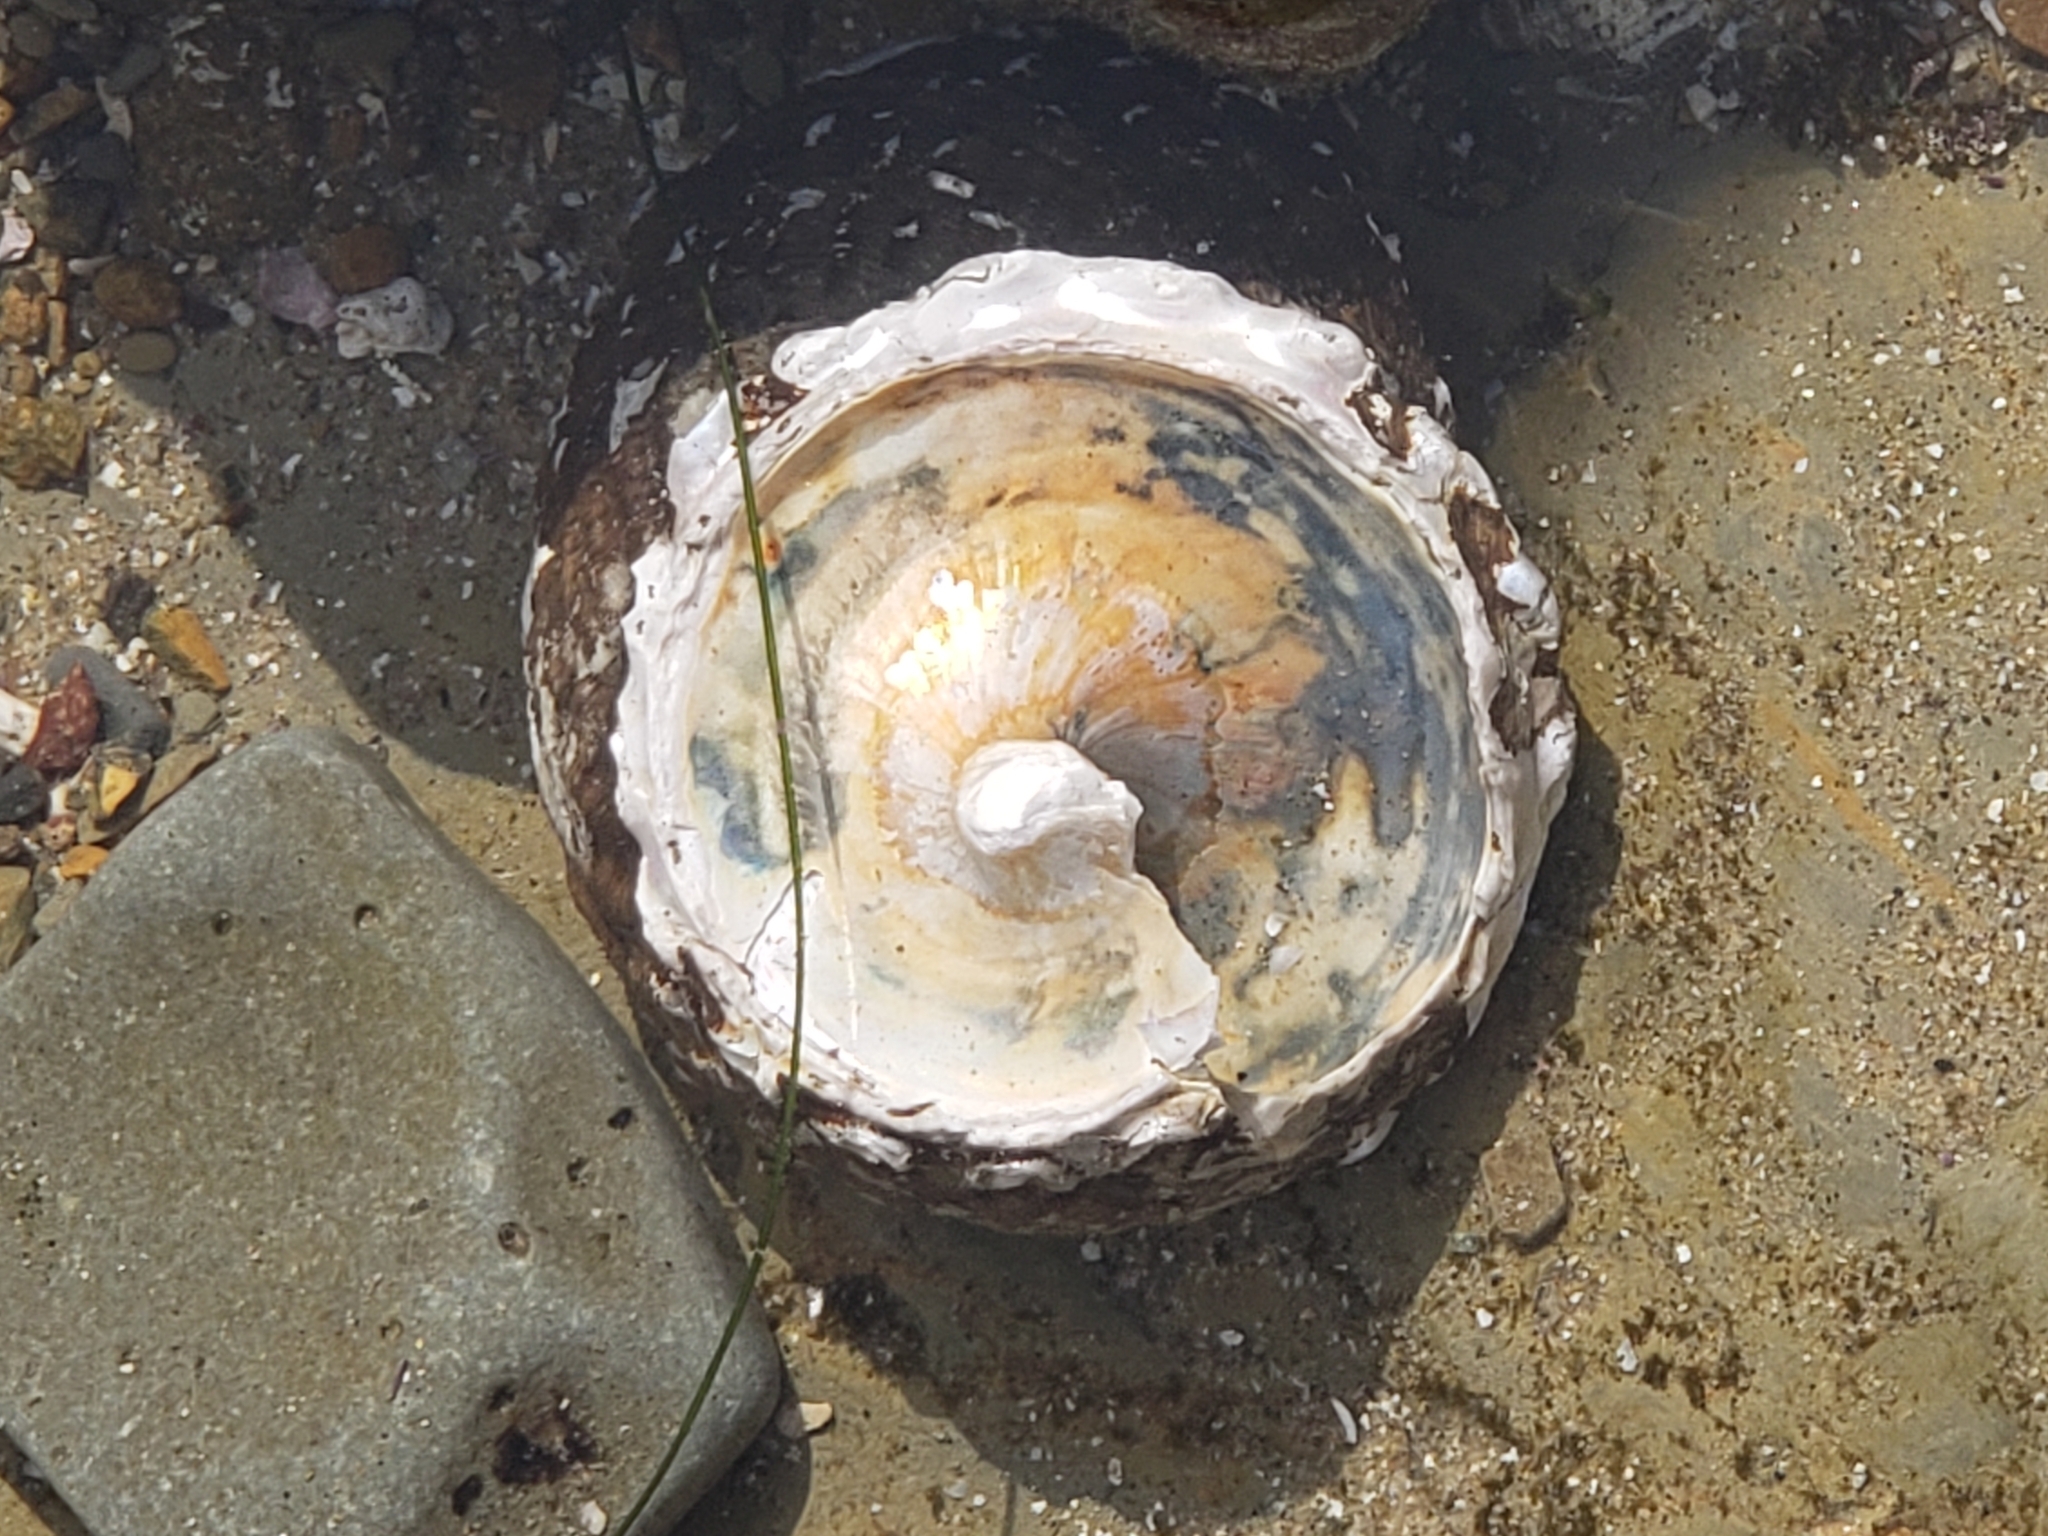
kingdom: Animalia
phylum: Mollusca
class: Gastropoda
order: Trochida
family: Turbinidae
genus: Megastraea
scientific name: Megastraea undosa
